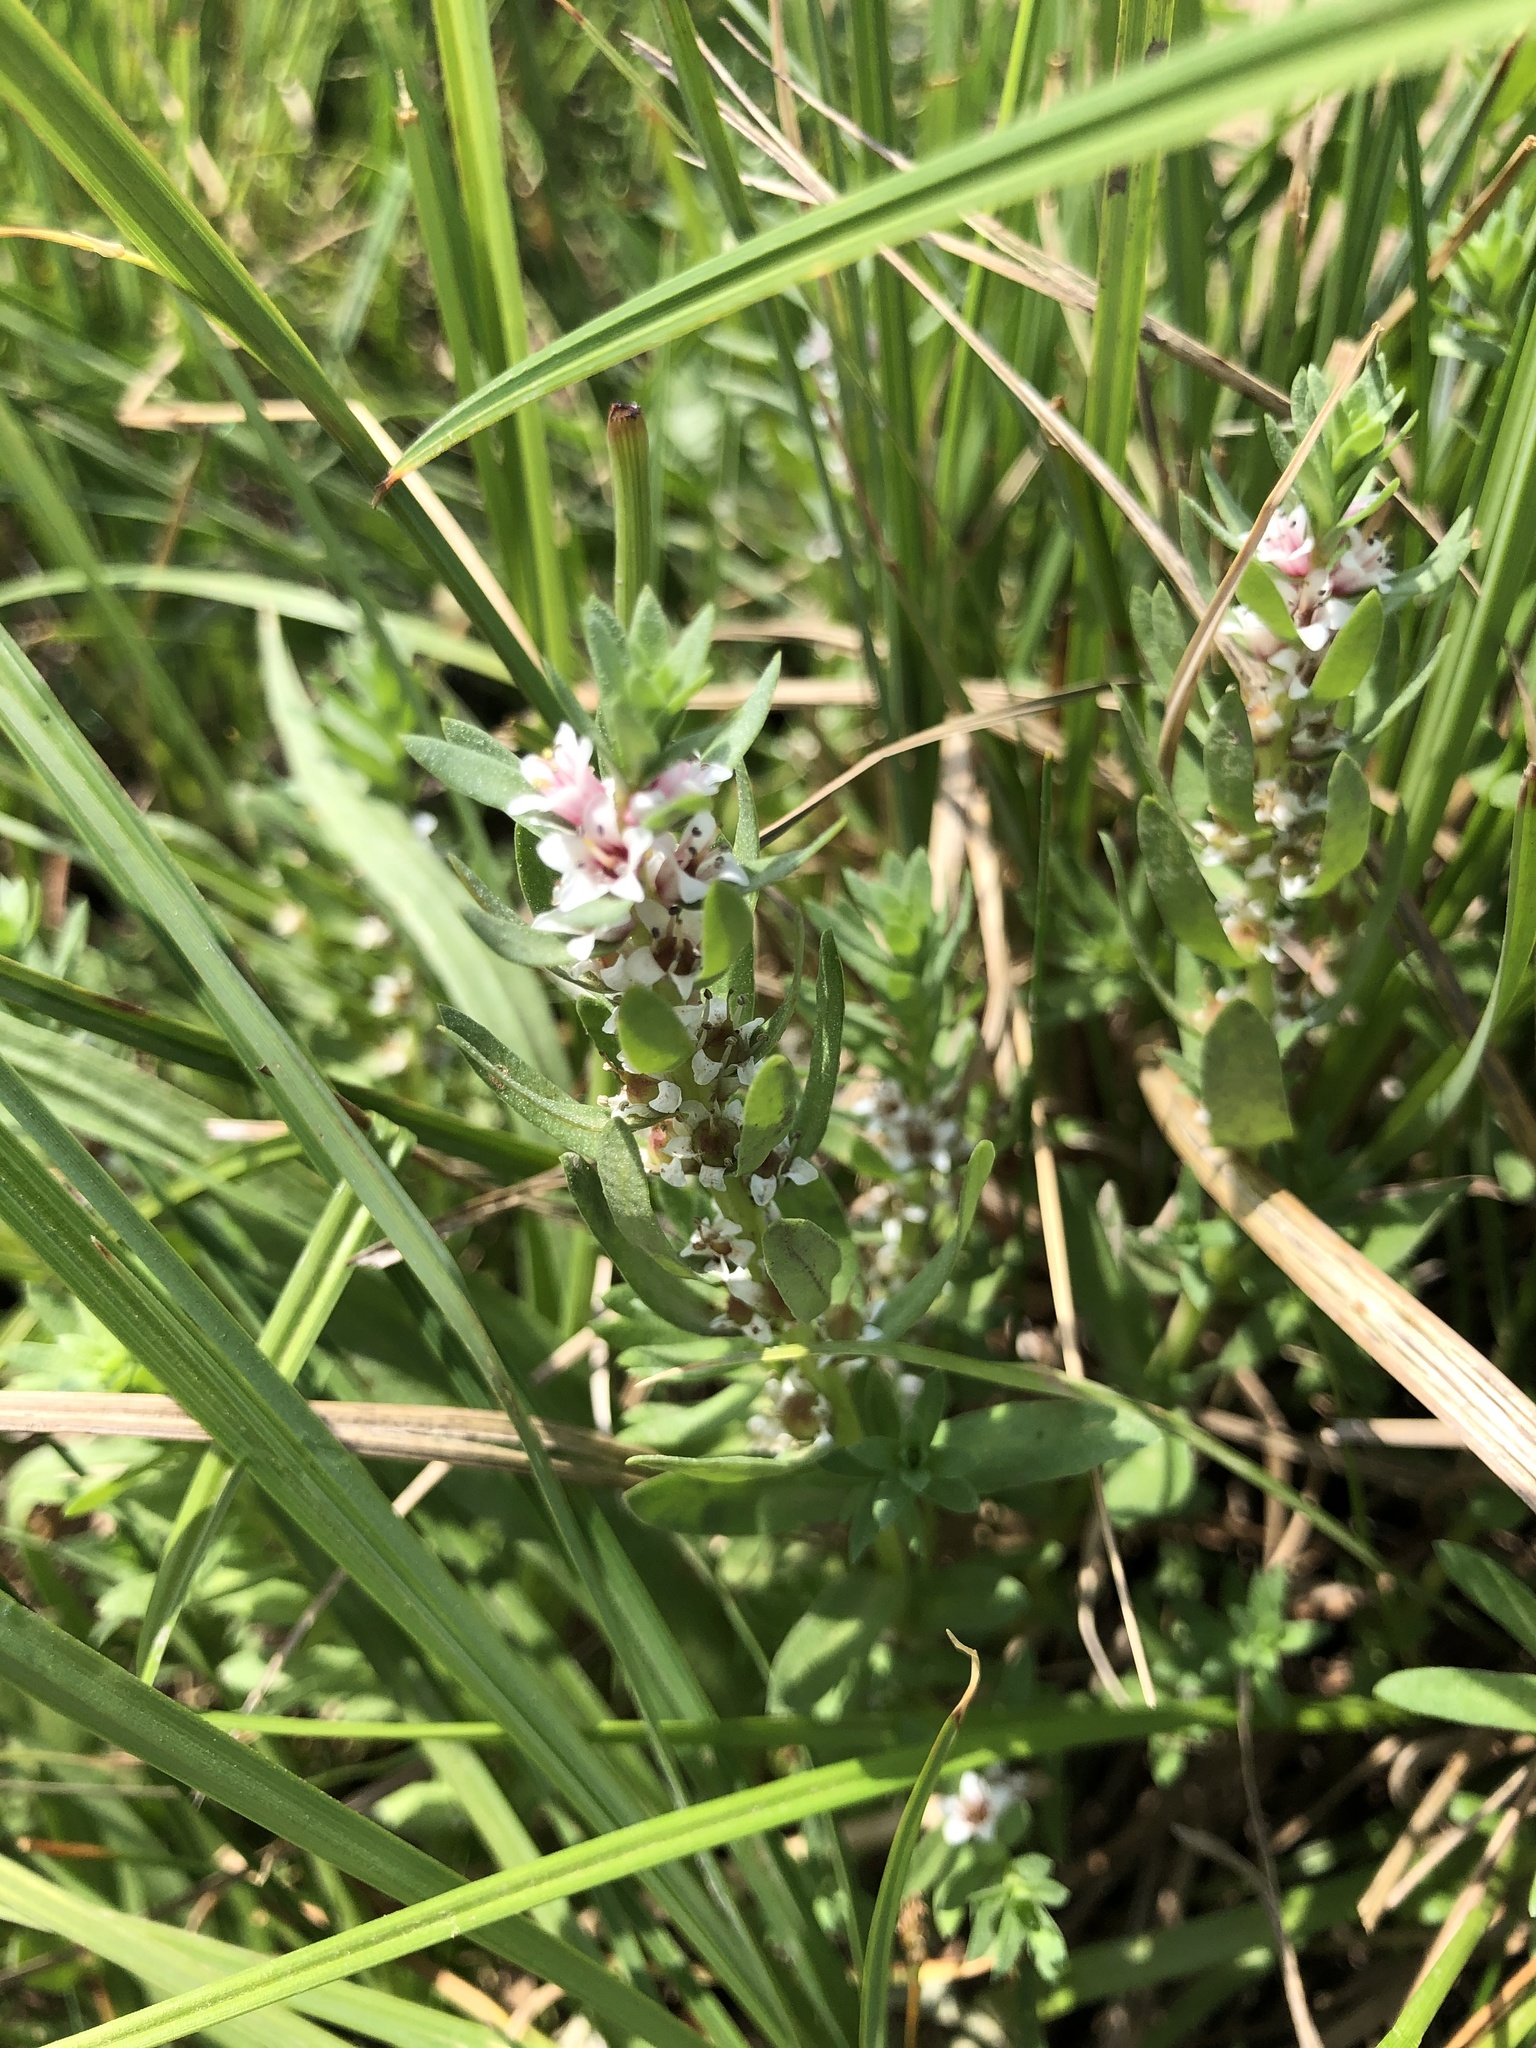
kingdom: Plantae
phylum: Tracheophyta
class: Magnoliopsida
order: Ericales
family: Primulaceae
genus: Lysimachia
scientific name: Lysimachia maritima
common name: Sea milkwort
